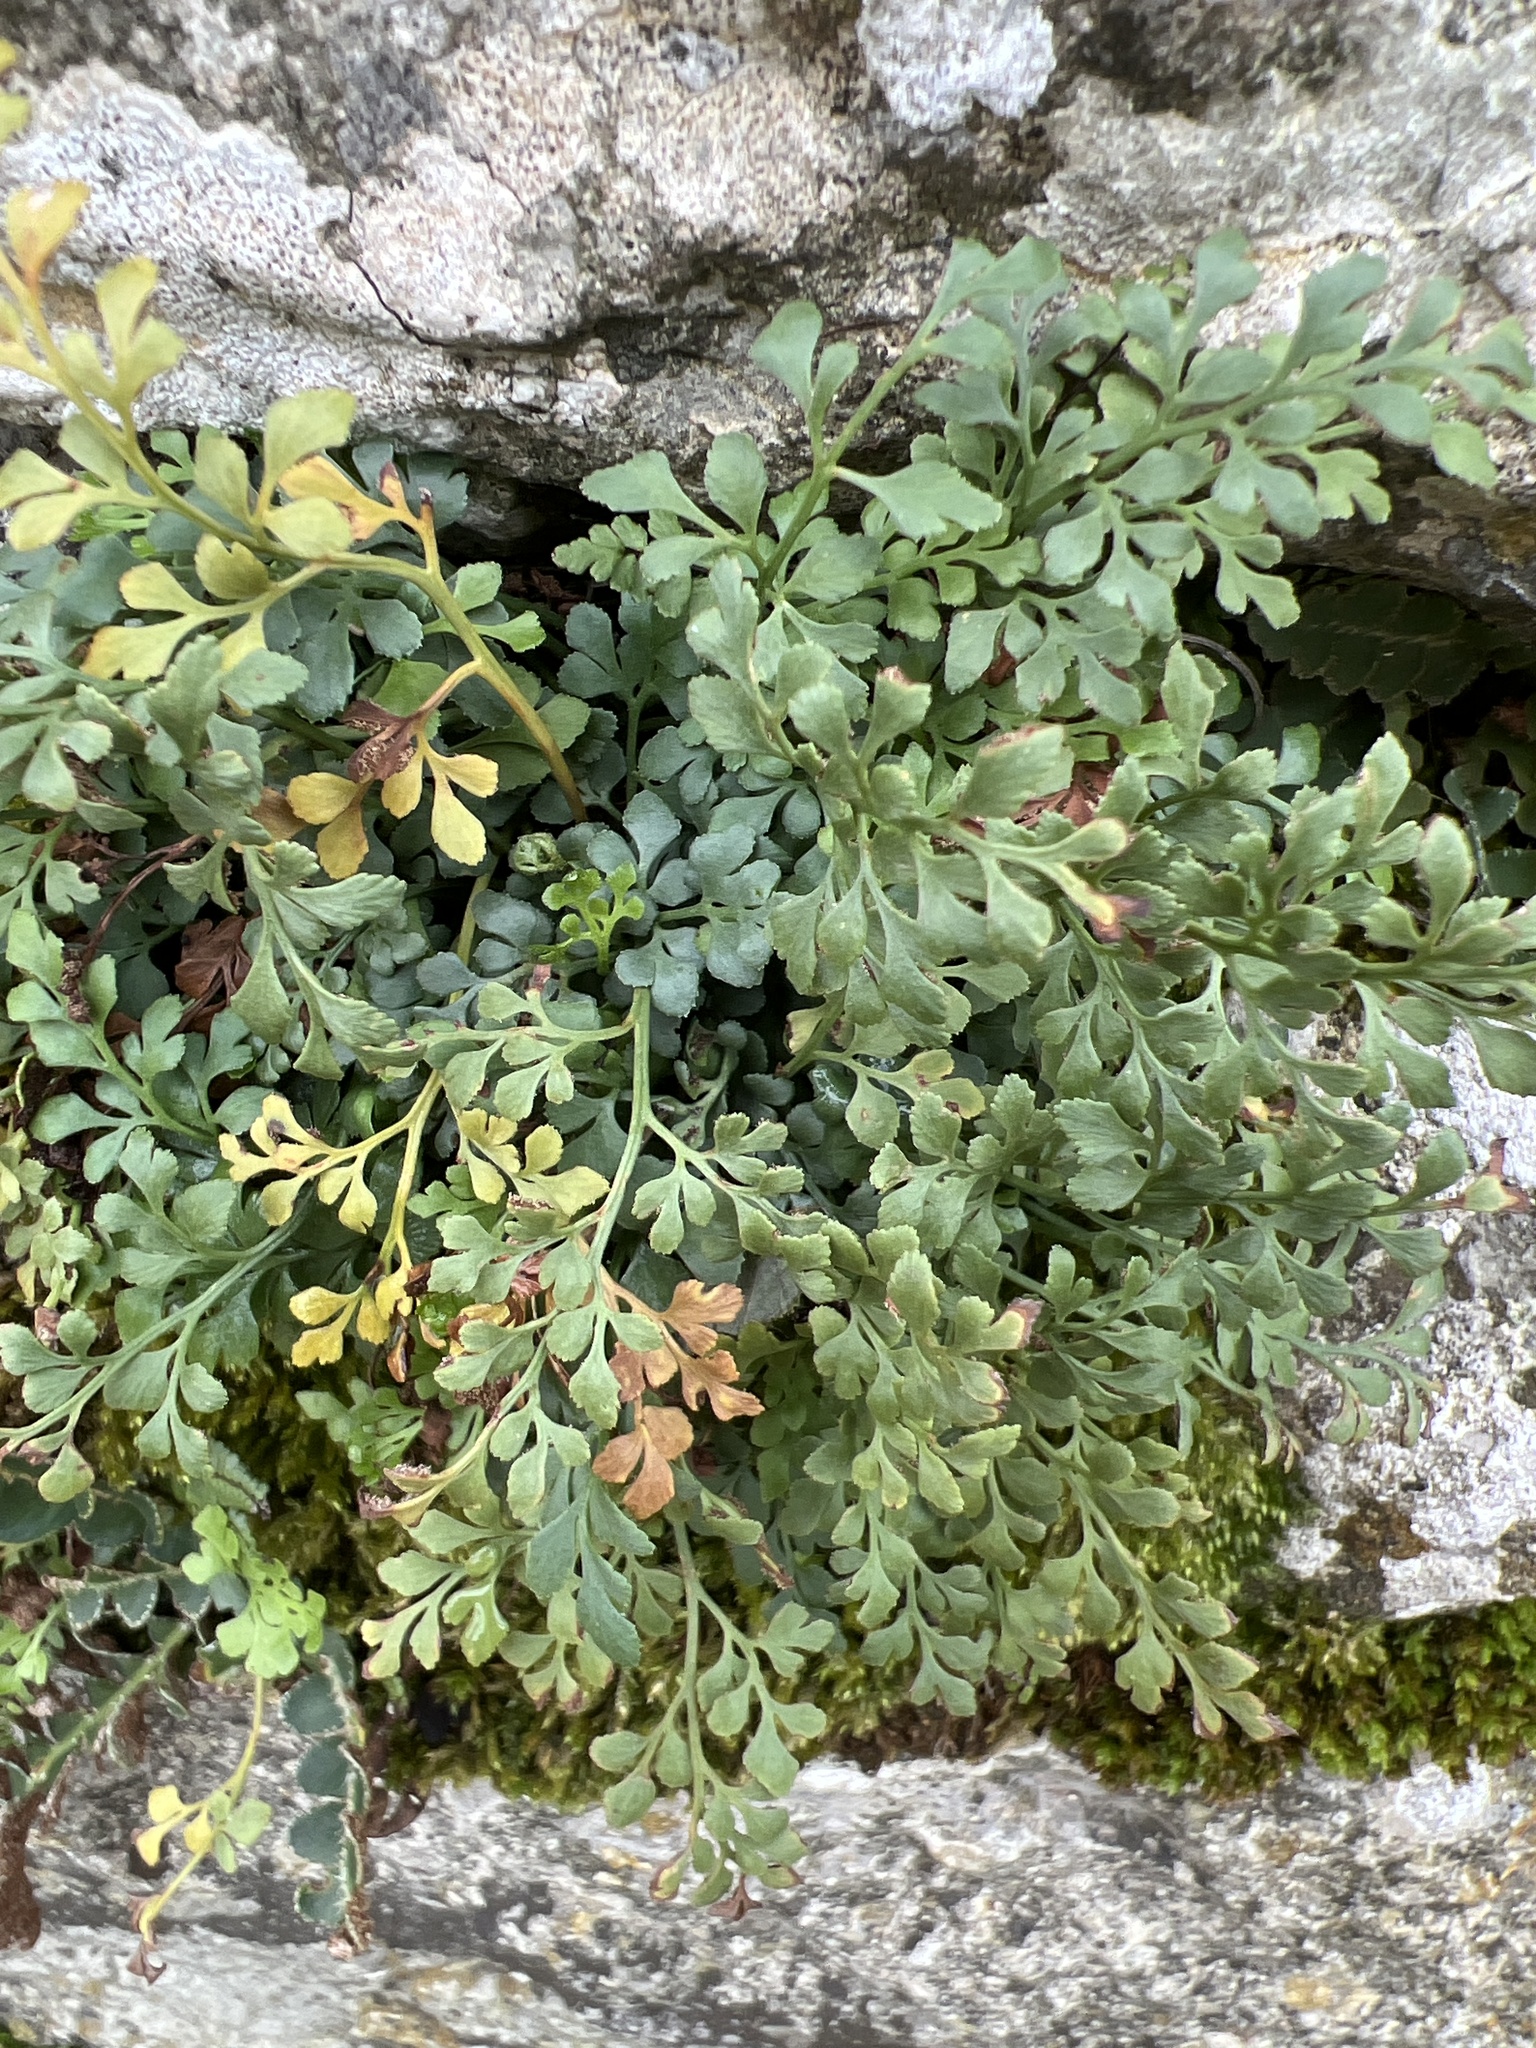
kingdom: Plantae
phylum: Tracheophyta
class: Polypodiopsida
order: Polypodiales
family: Aspleniaceae
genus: Asplenium
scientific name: Asplenium ruta-muraria
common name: Wall-rue
